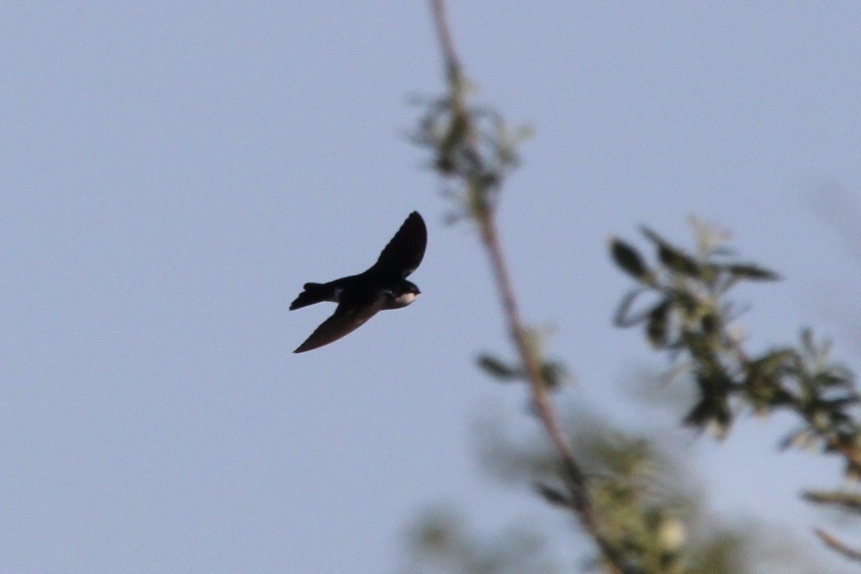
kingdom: Animalia
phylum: Chordata
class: Aves
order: Passeriformes
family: Hirundinidae
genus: Tachycineta
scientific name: Tachycineta bicolor
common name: Tree swallow
